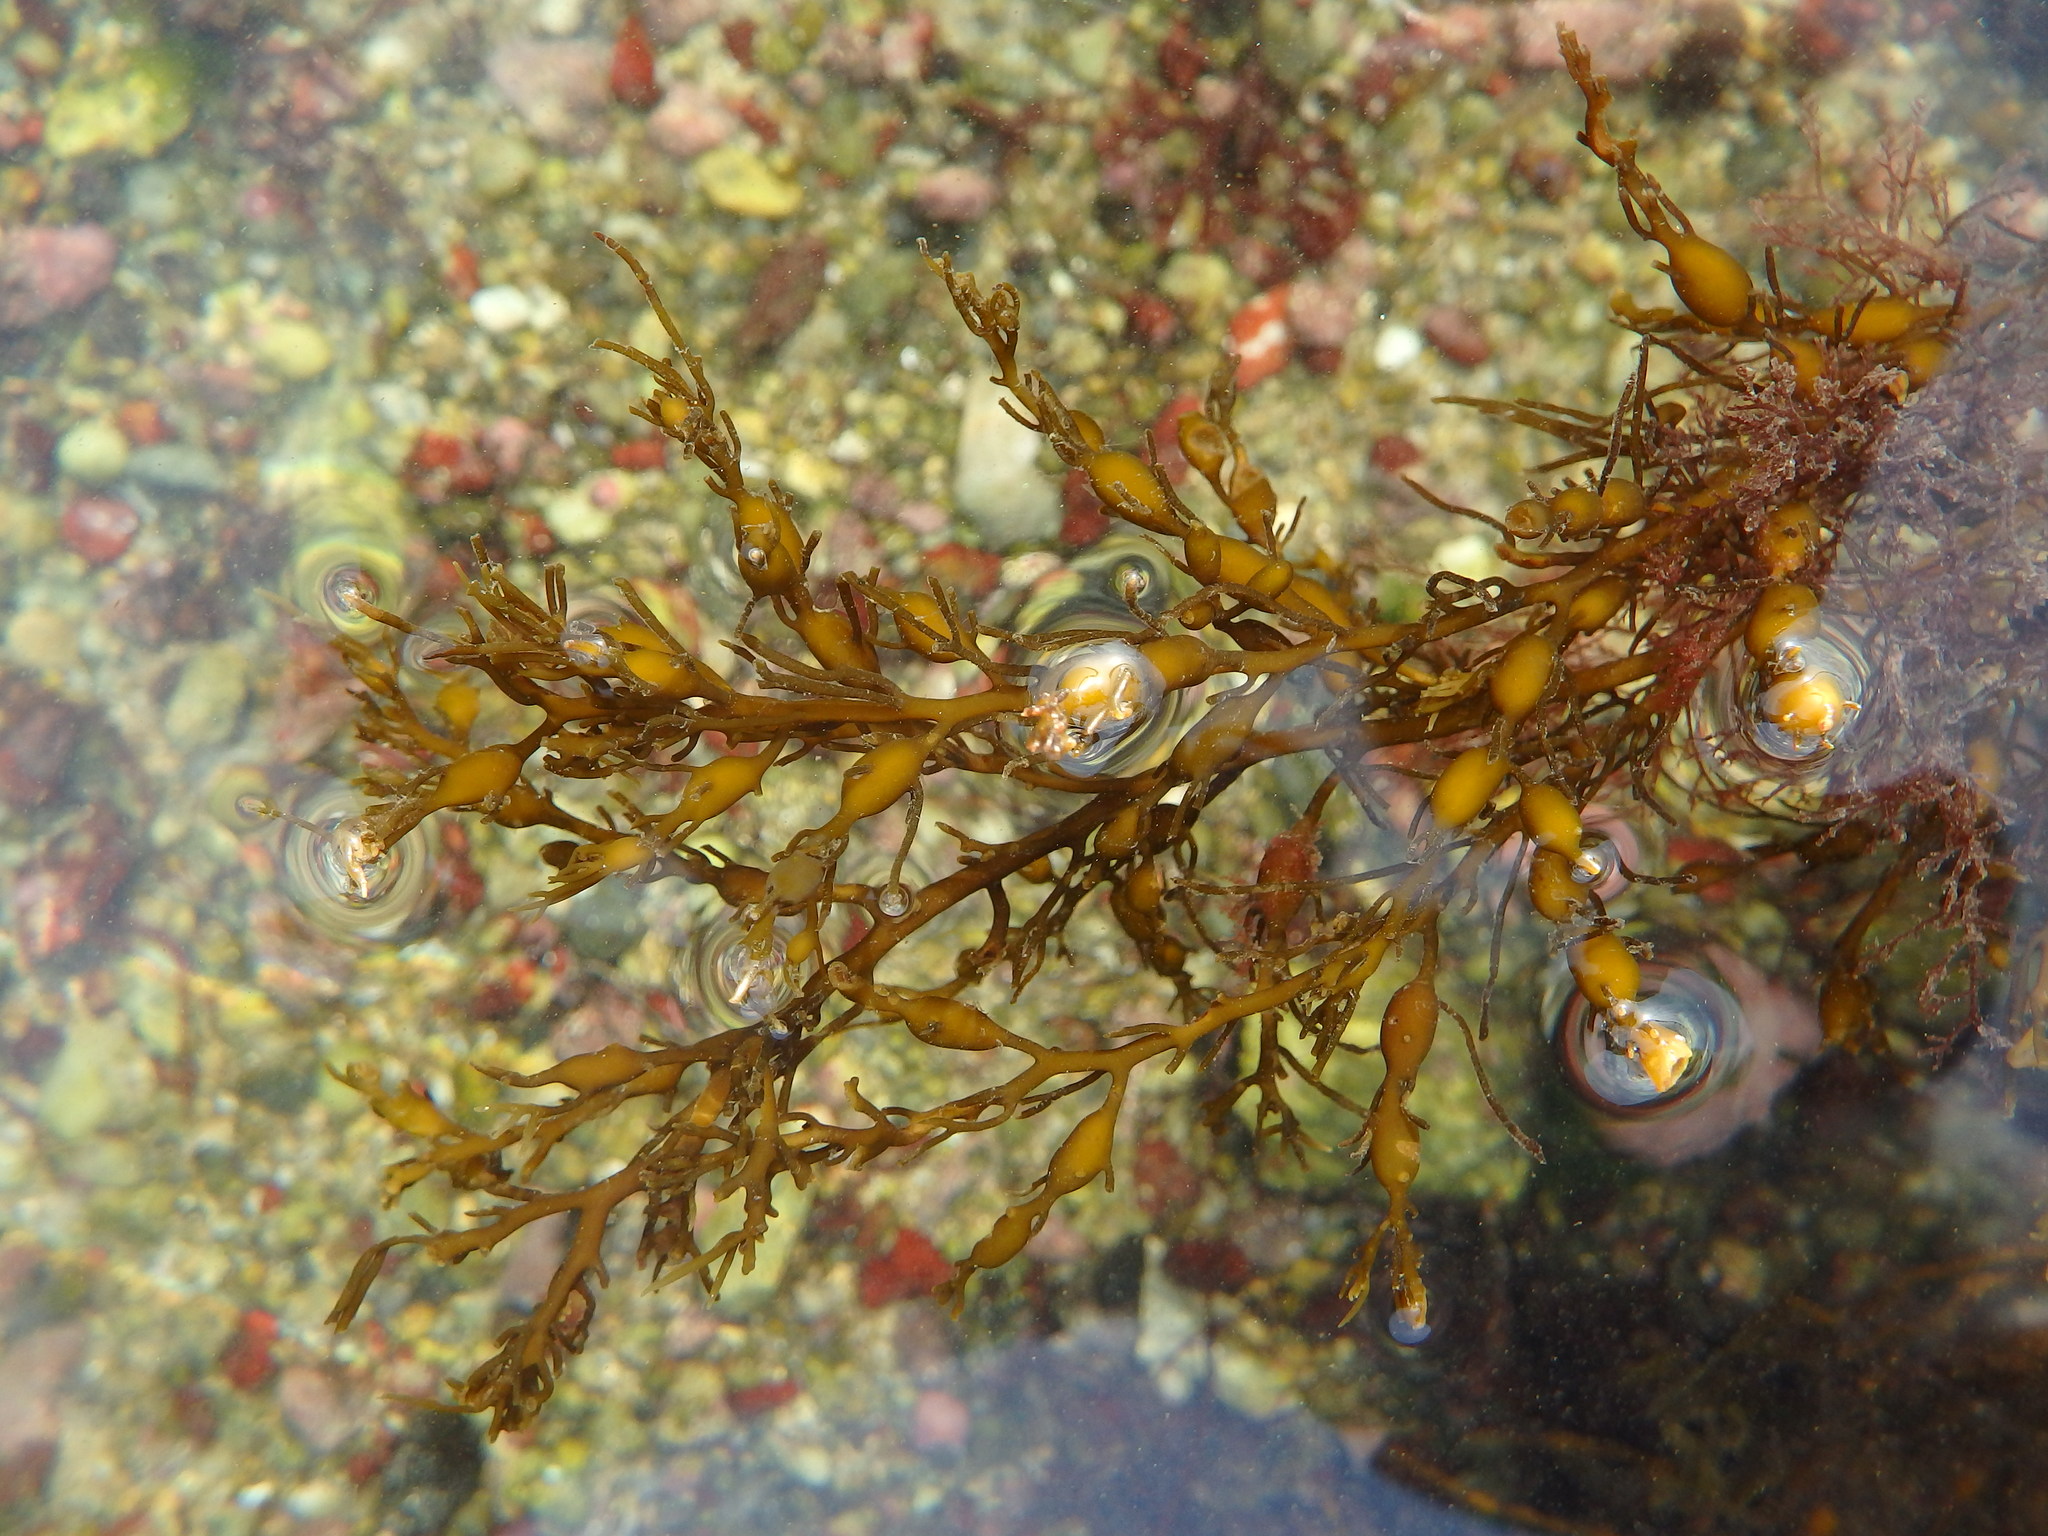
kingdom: Chromista
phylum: Ochrophyta
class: Phaeophyceae
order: Fucales
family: Sargassaceae
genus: Cystoseira
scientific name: Cystoseira Gongolaria baccata
